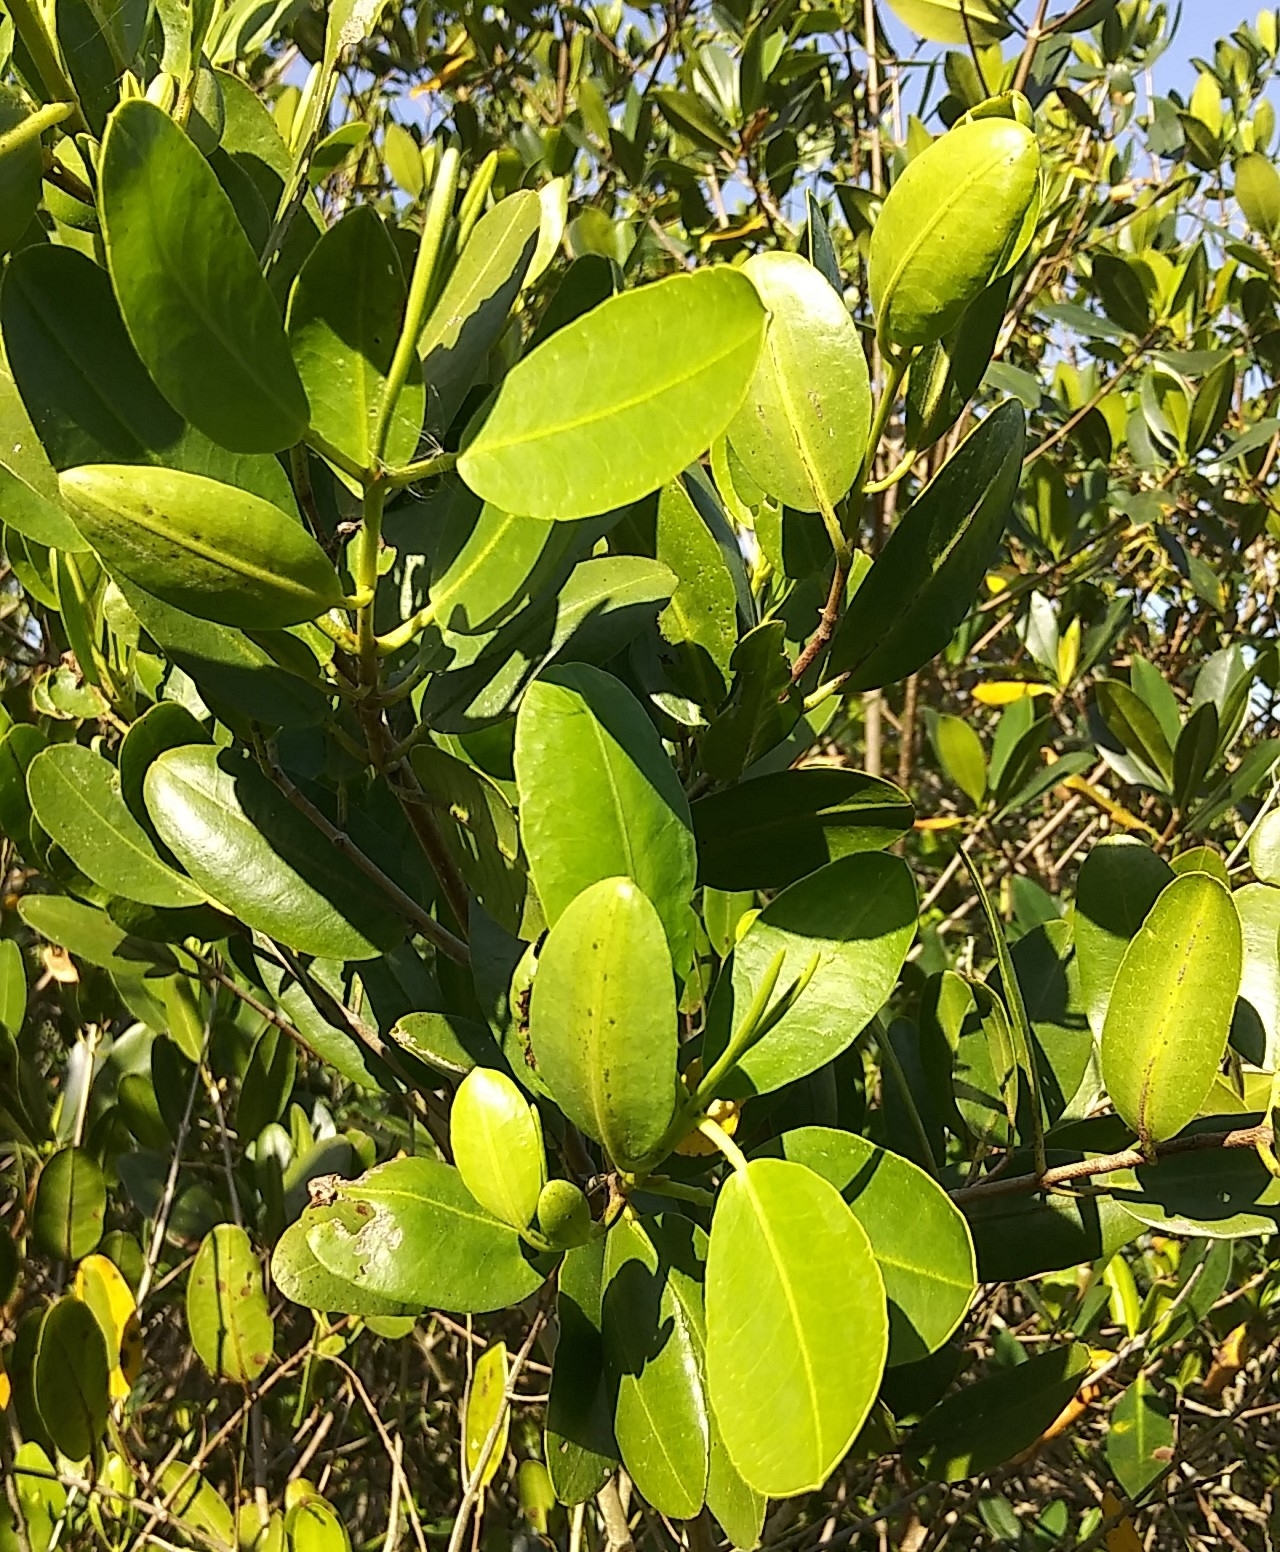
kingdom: Plantae
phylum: Tracheophyta
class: Magnoliopsida
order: Myrtales
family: Combretaceae
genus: Laguncularia
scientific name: Laguncularia racemosa
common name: White mangrove
